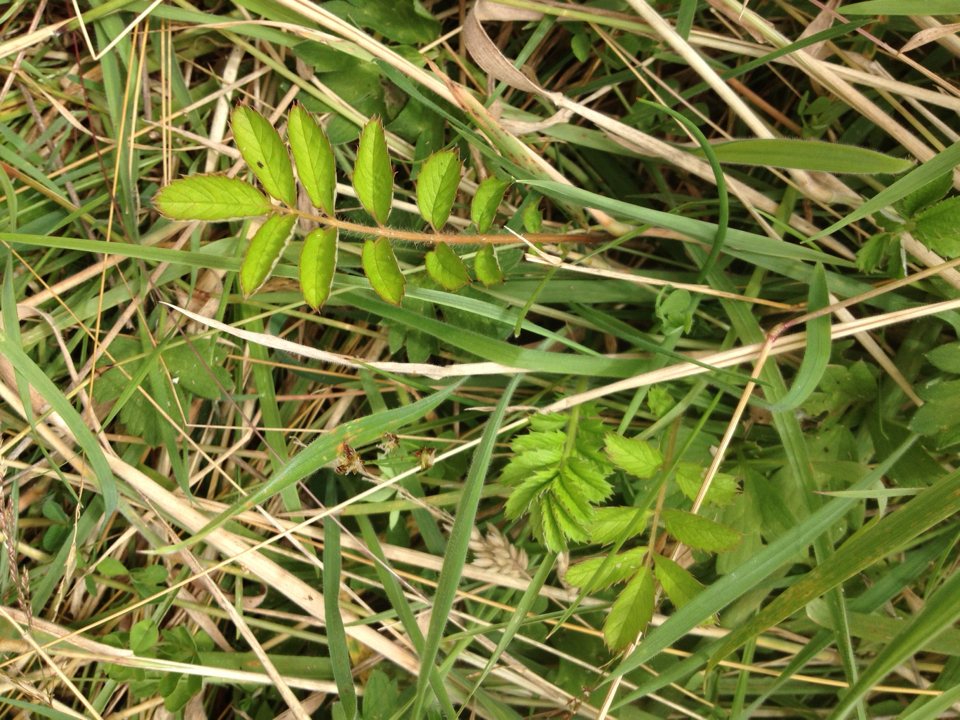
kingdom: Plantae
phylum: Tracheophyta
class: Magnoliopsida
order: Rosales
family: Rosaceae
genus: Argentina
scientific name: Argentina anserinoides
